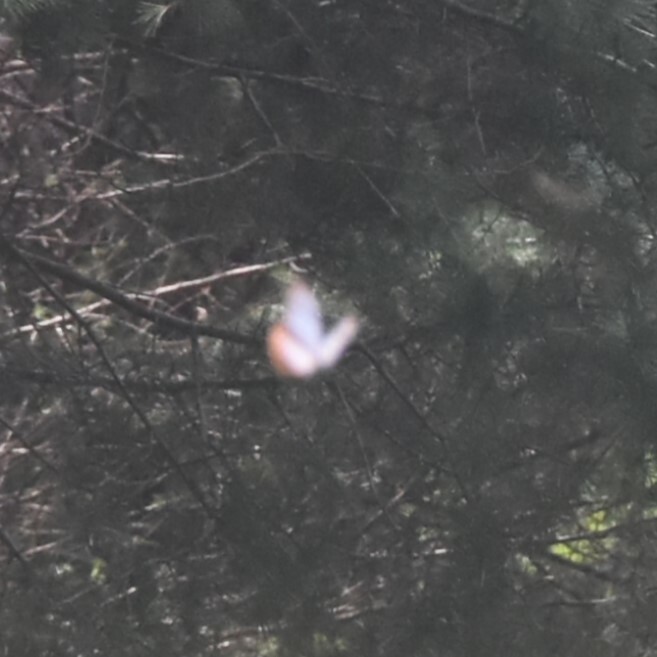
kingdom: Animalia
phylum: Arthropoda
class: Insecta
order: Lepidoptera
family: Nymphalidae
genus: Parantica
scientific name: Parantica sita
